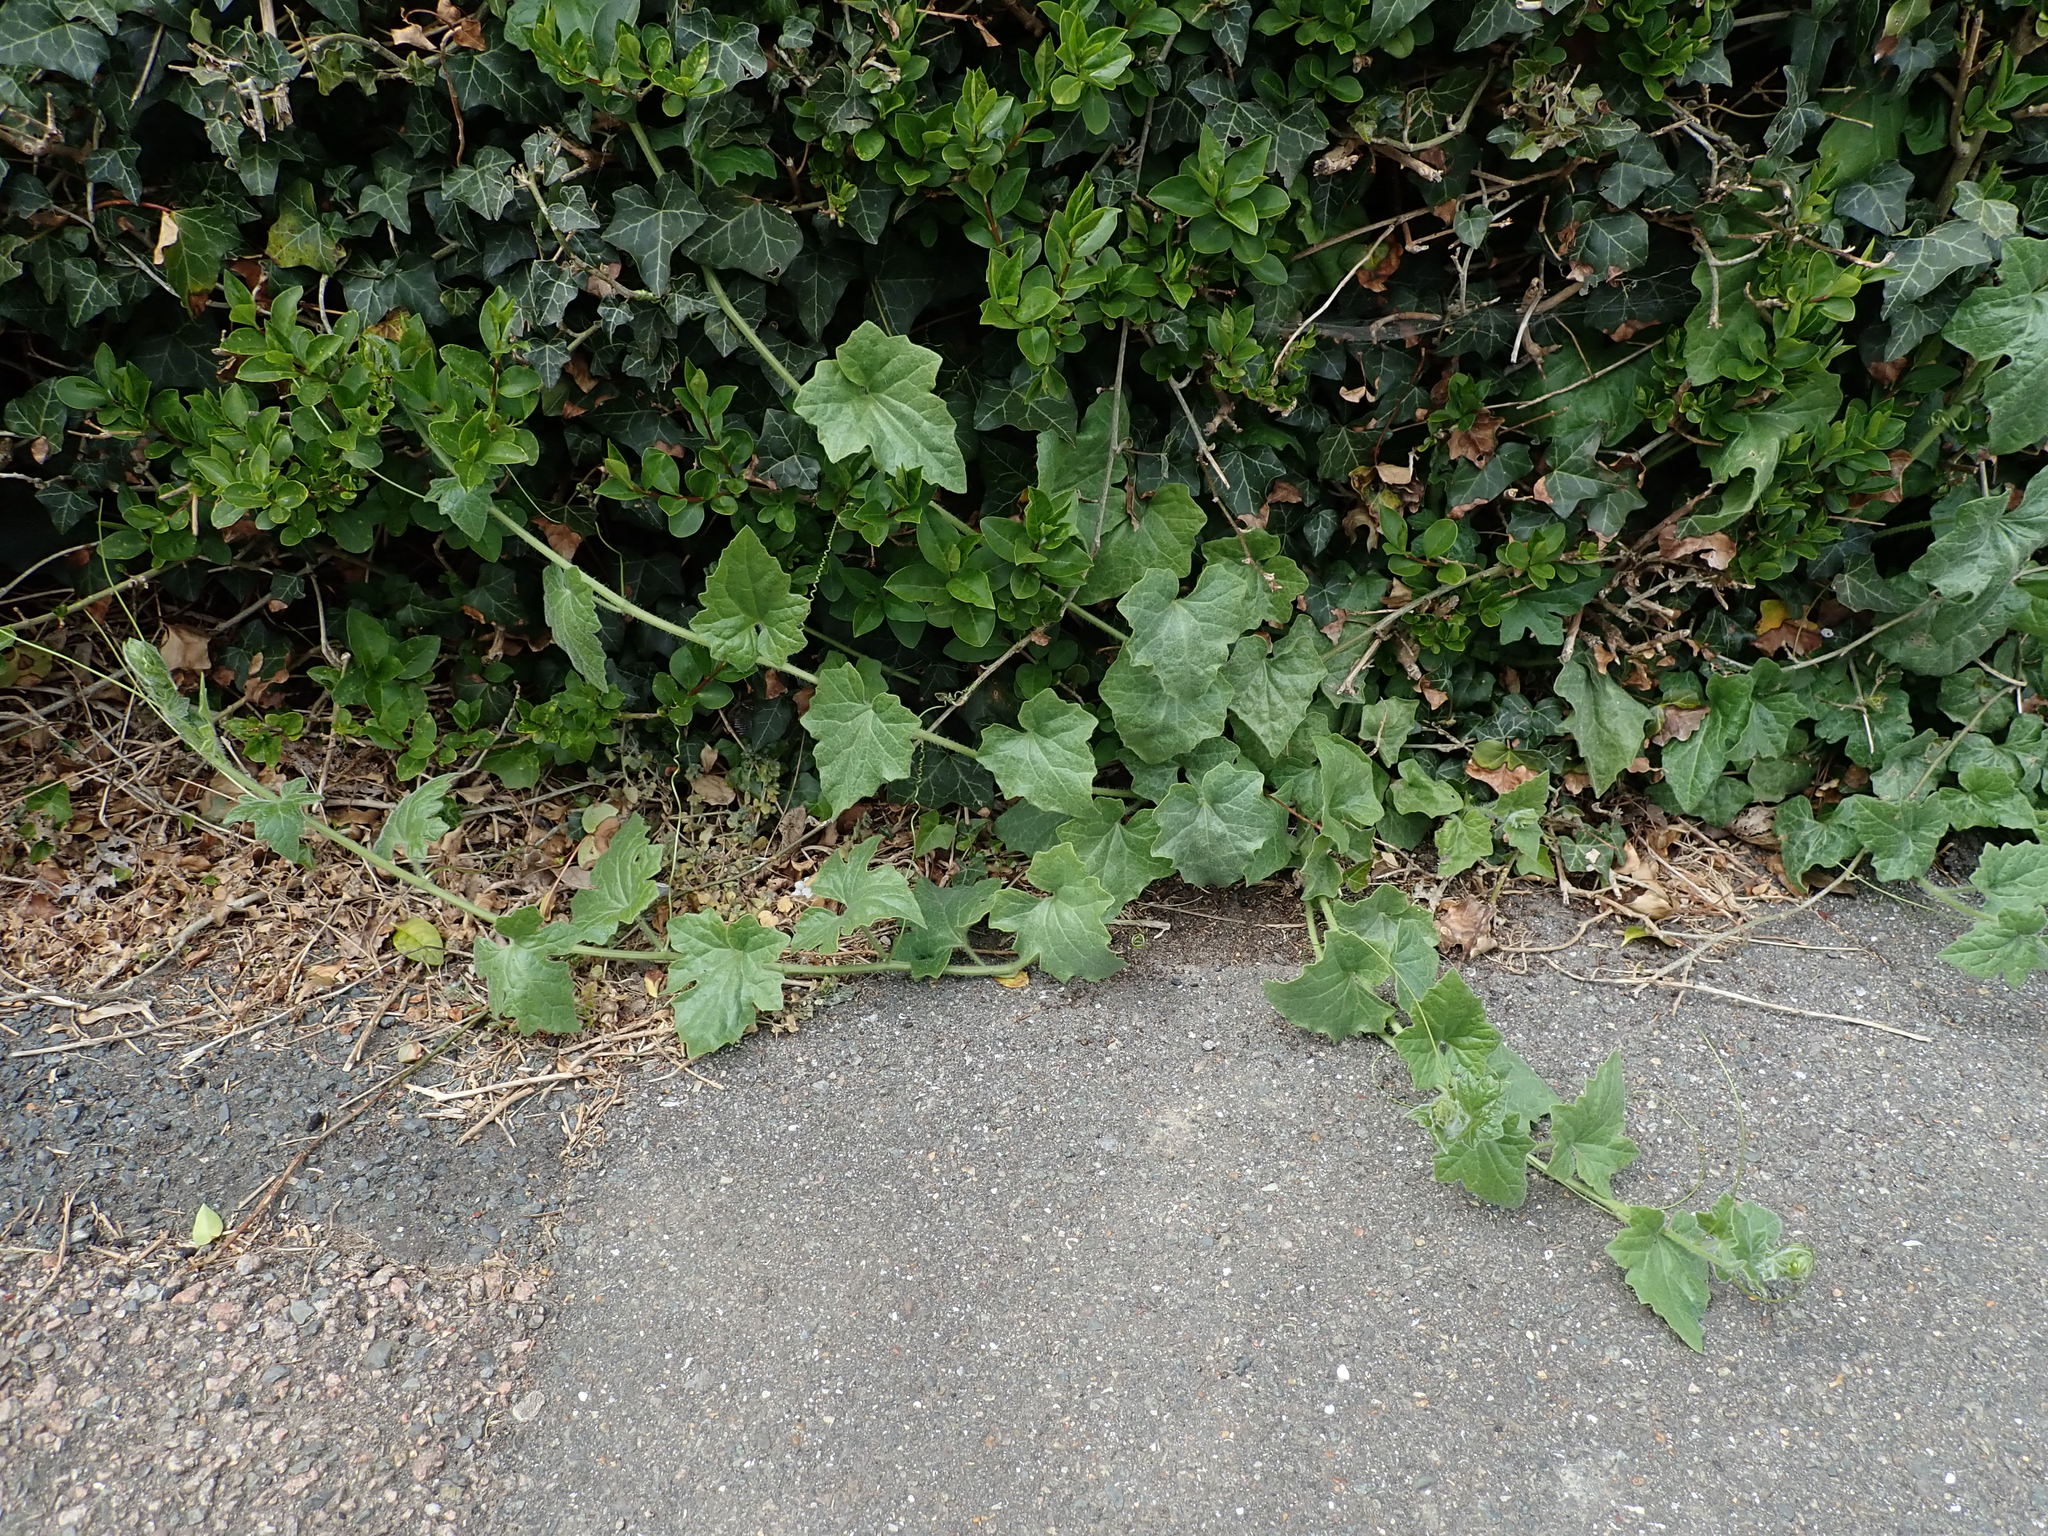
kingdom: Plantae
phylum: Tracheophyta
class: Magnoliopsida
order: Cucurbitales
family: Cucurbitaceae
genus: Bryonia
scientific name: Bryonia cretica
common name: Cretan bryony
